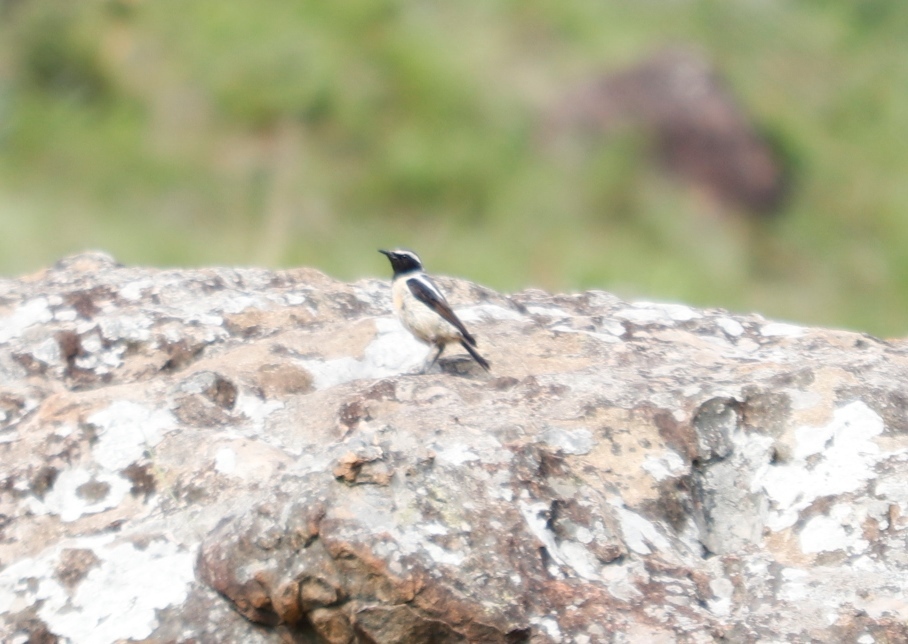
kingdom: Animalia
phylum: Chordata
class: Aves
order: Passeriformes
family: Muscicapidae
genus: Campicoloides
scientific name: Campicoloides bifasciatus
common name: Buff-streaked chat
